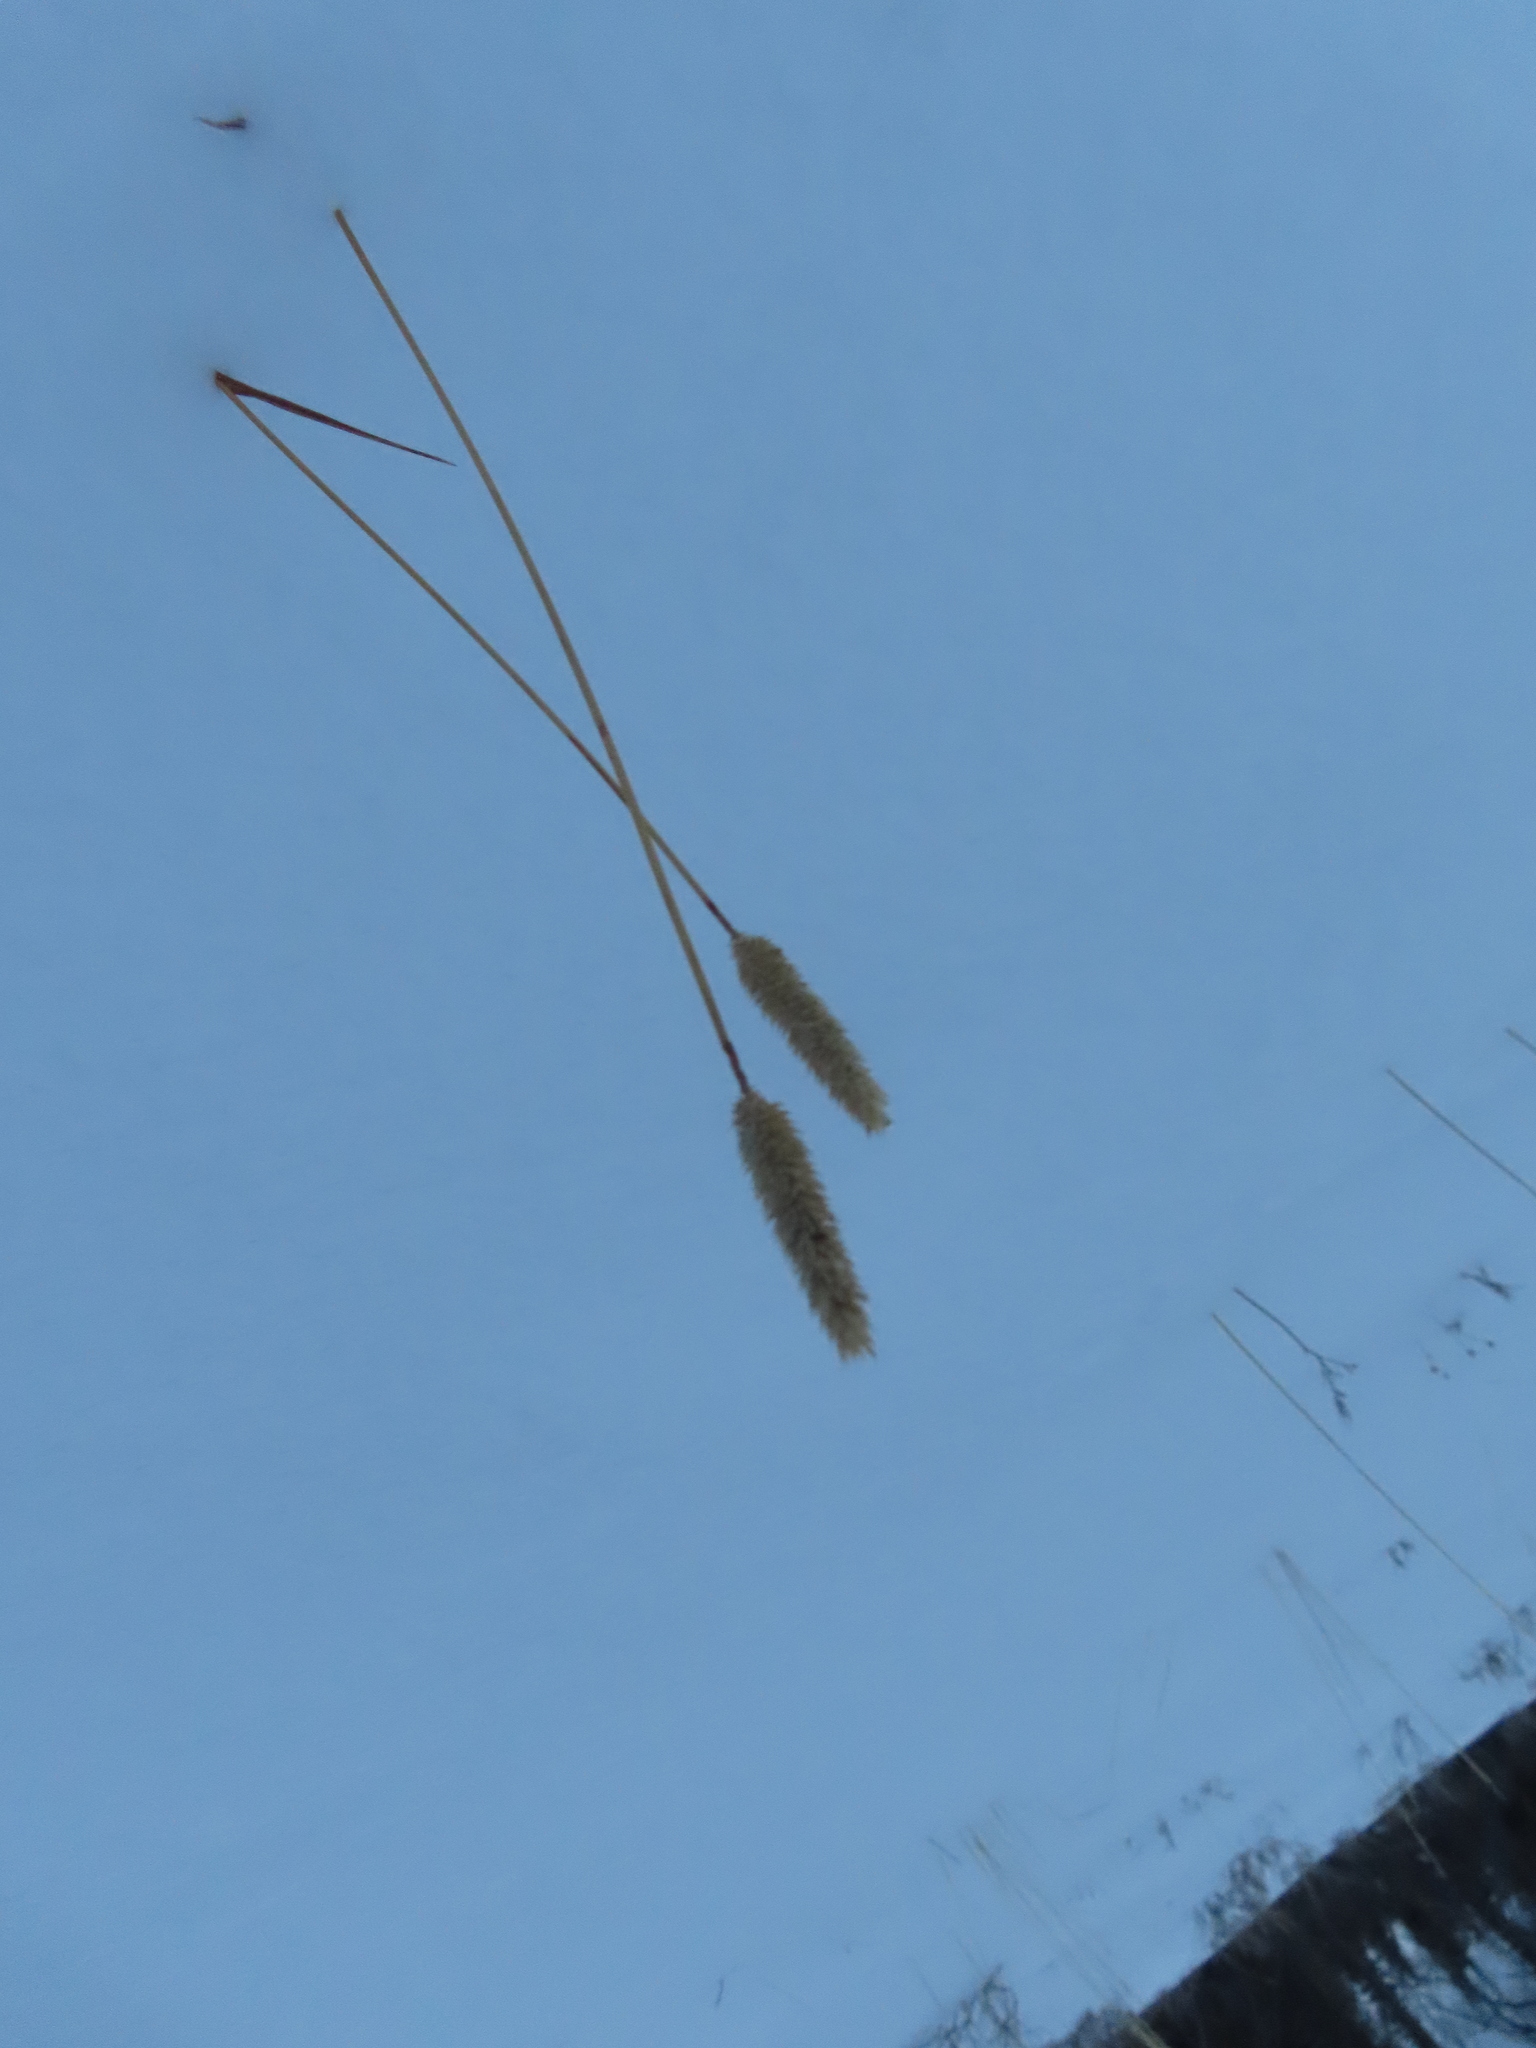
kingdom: Plantae
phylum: Tracheophyta
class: Liliopsida
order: Poales
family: Poaceae
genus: Phleum
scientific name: Phleum pratense
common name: Timothy grass
